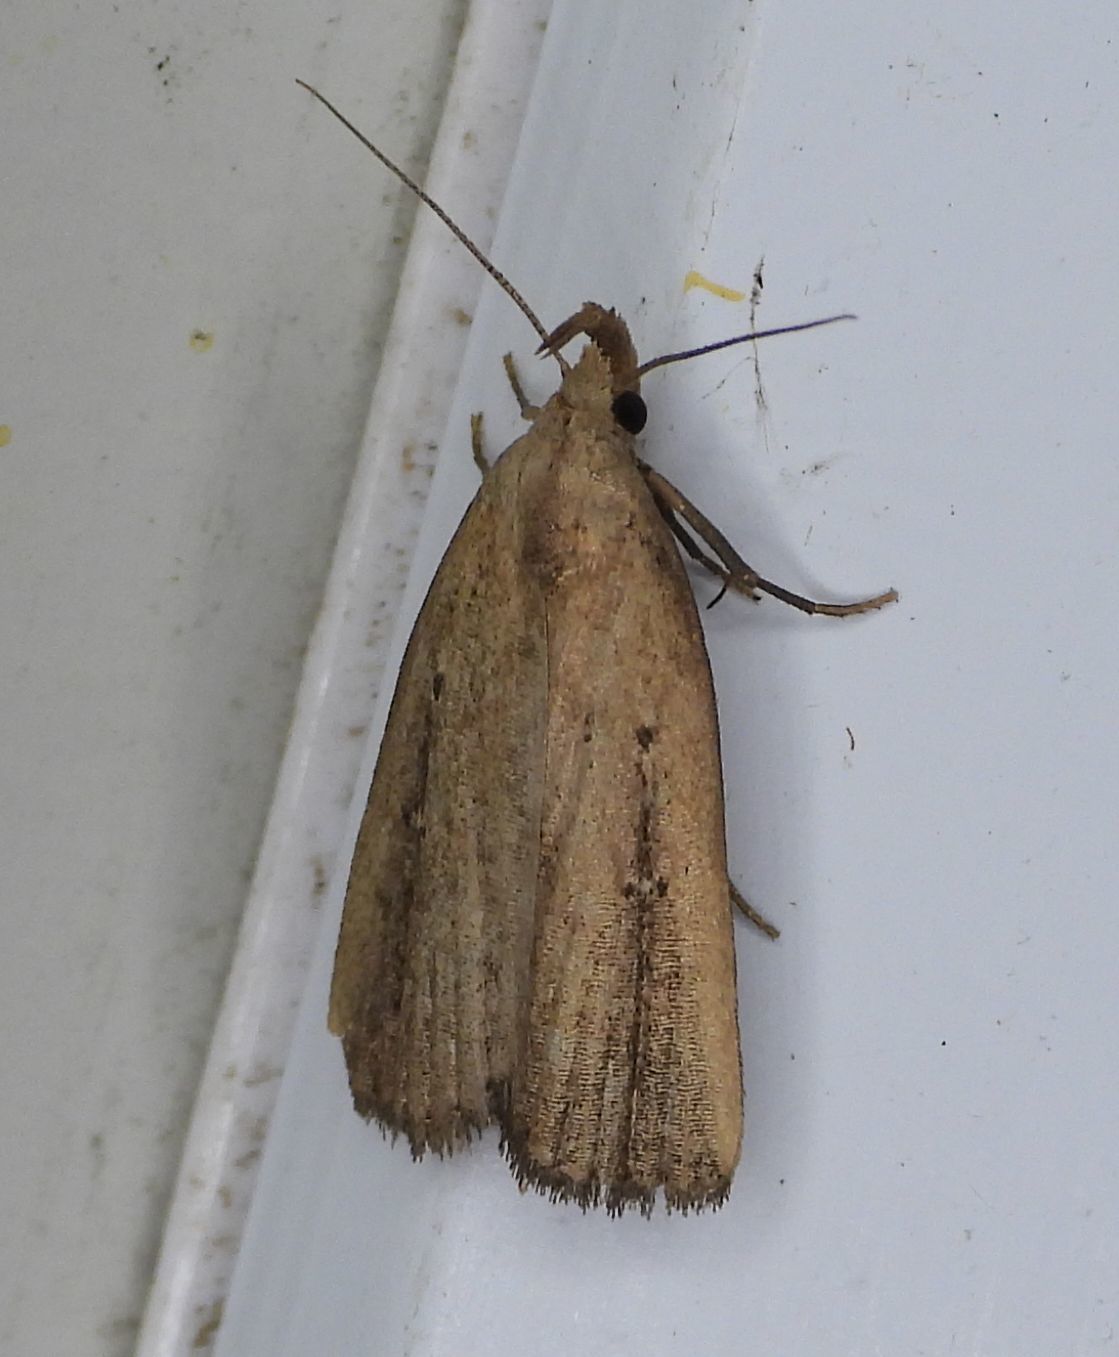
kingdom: Animalia
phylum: Arthropoda
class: Insecta
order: Lepidoptera
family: Erebidae
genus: Macrochilo
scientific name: Macrochilo orciferalis
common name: Bronzy owlet
